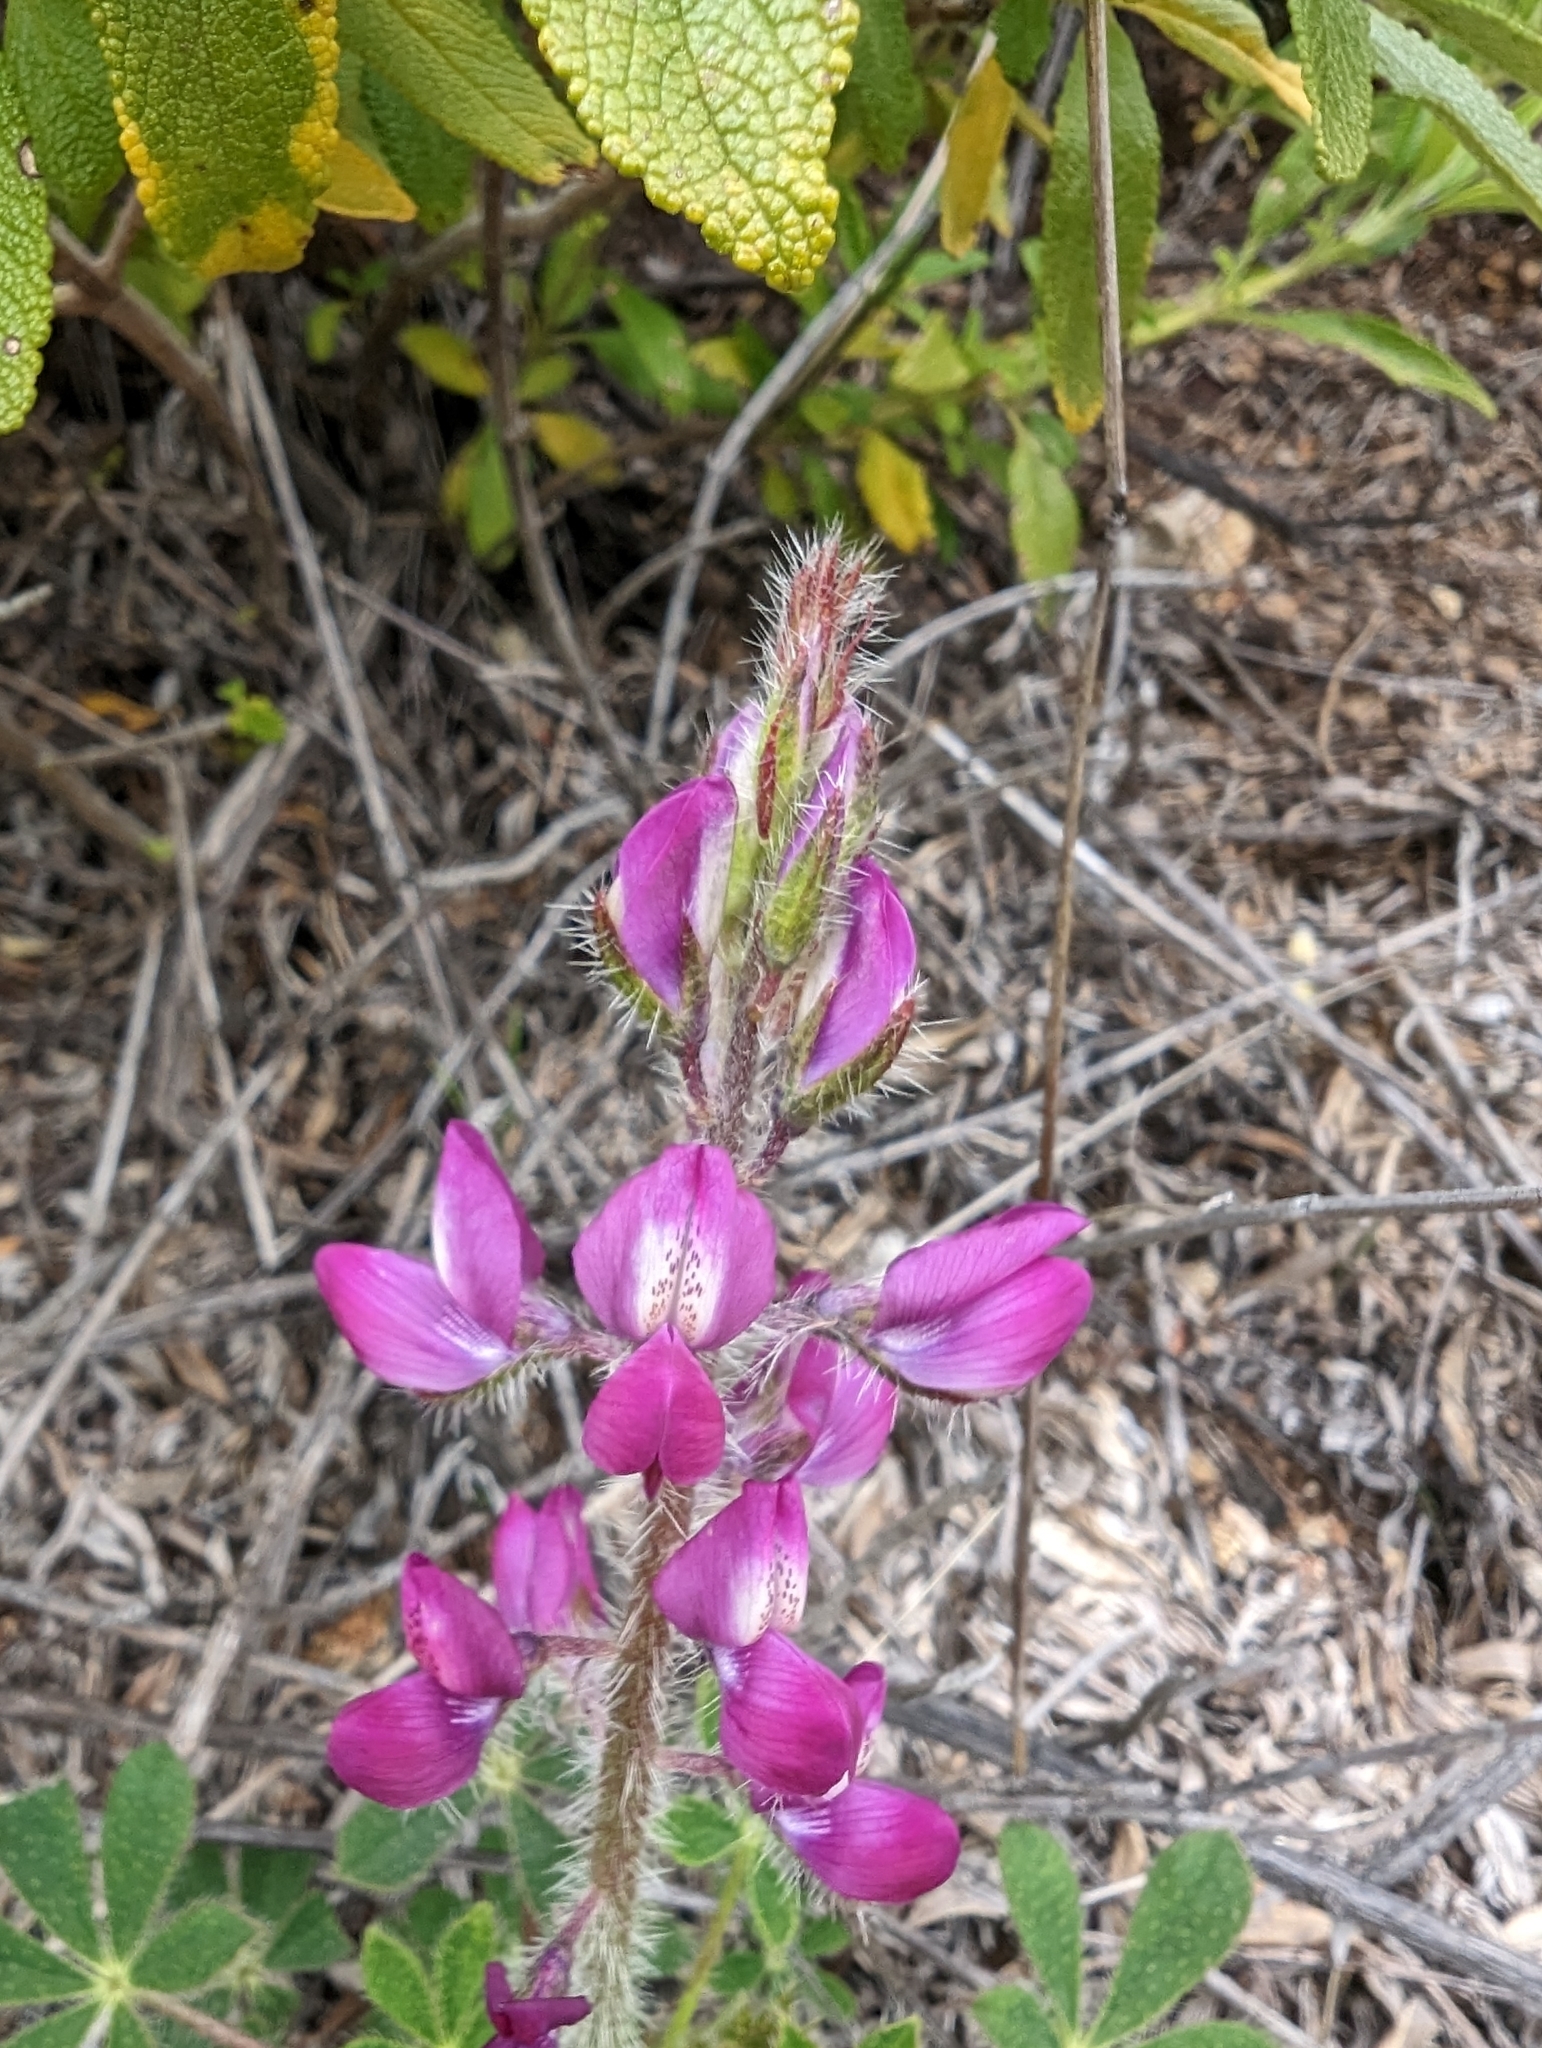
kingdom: Plantae
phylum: Tracheophyta
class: Magnoliopsida
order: Fabales
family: Fabaceae
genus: Lupinus
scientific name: Lupinus hirsutissimus
